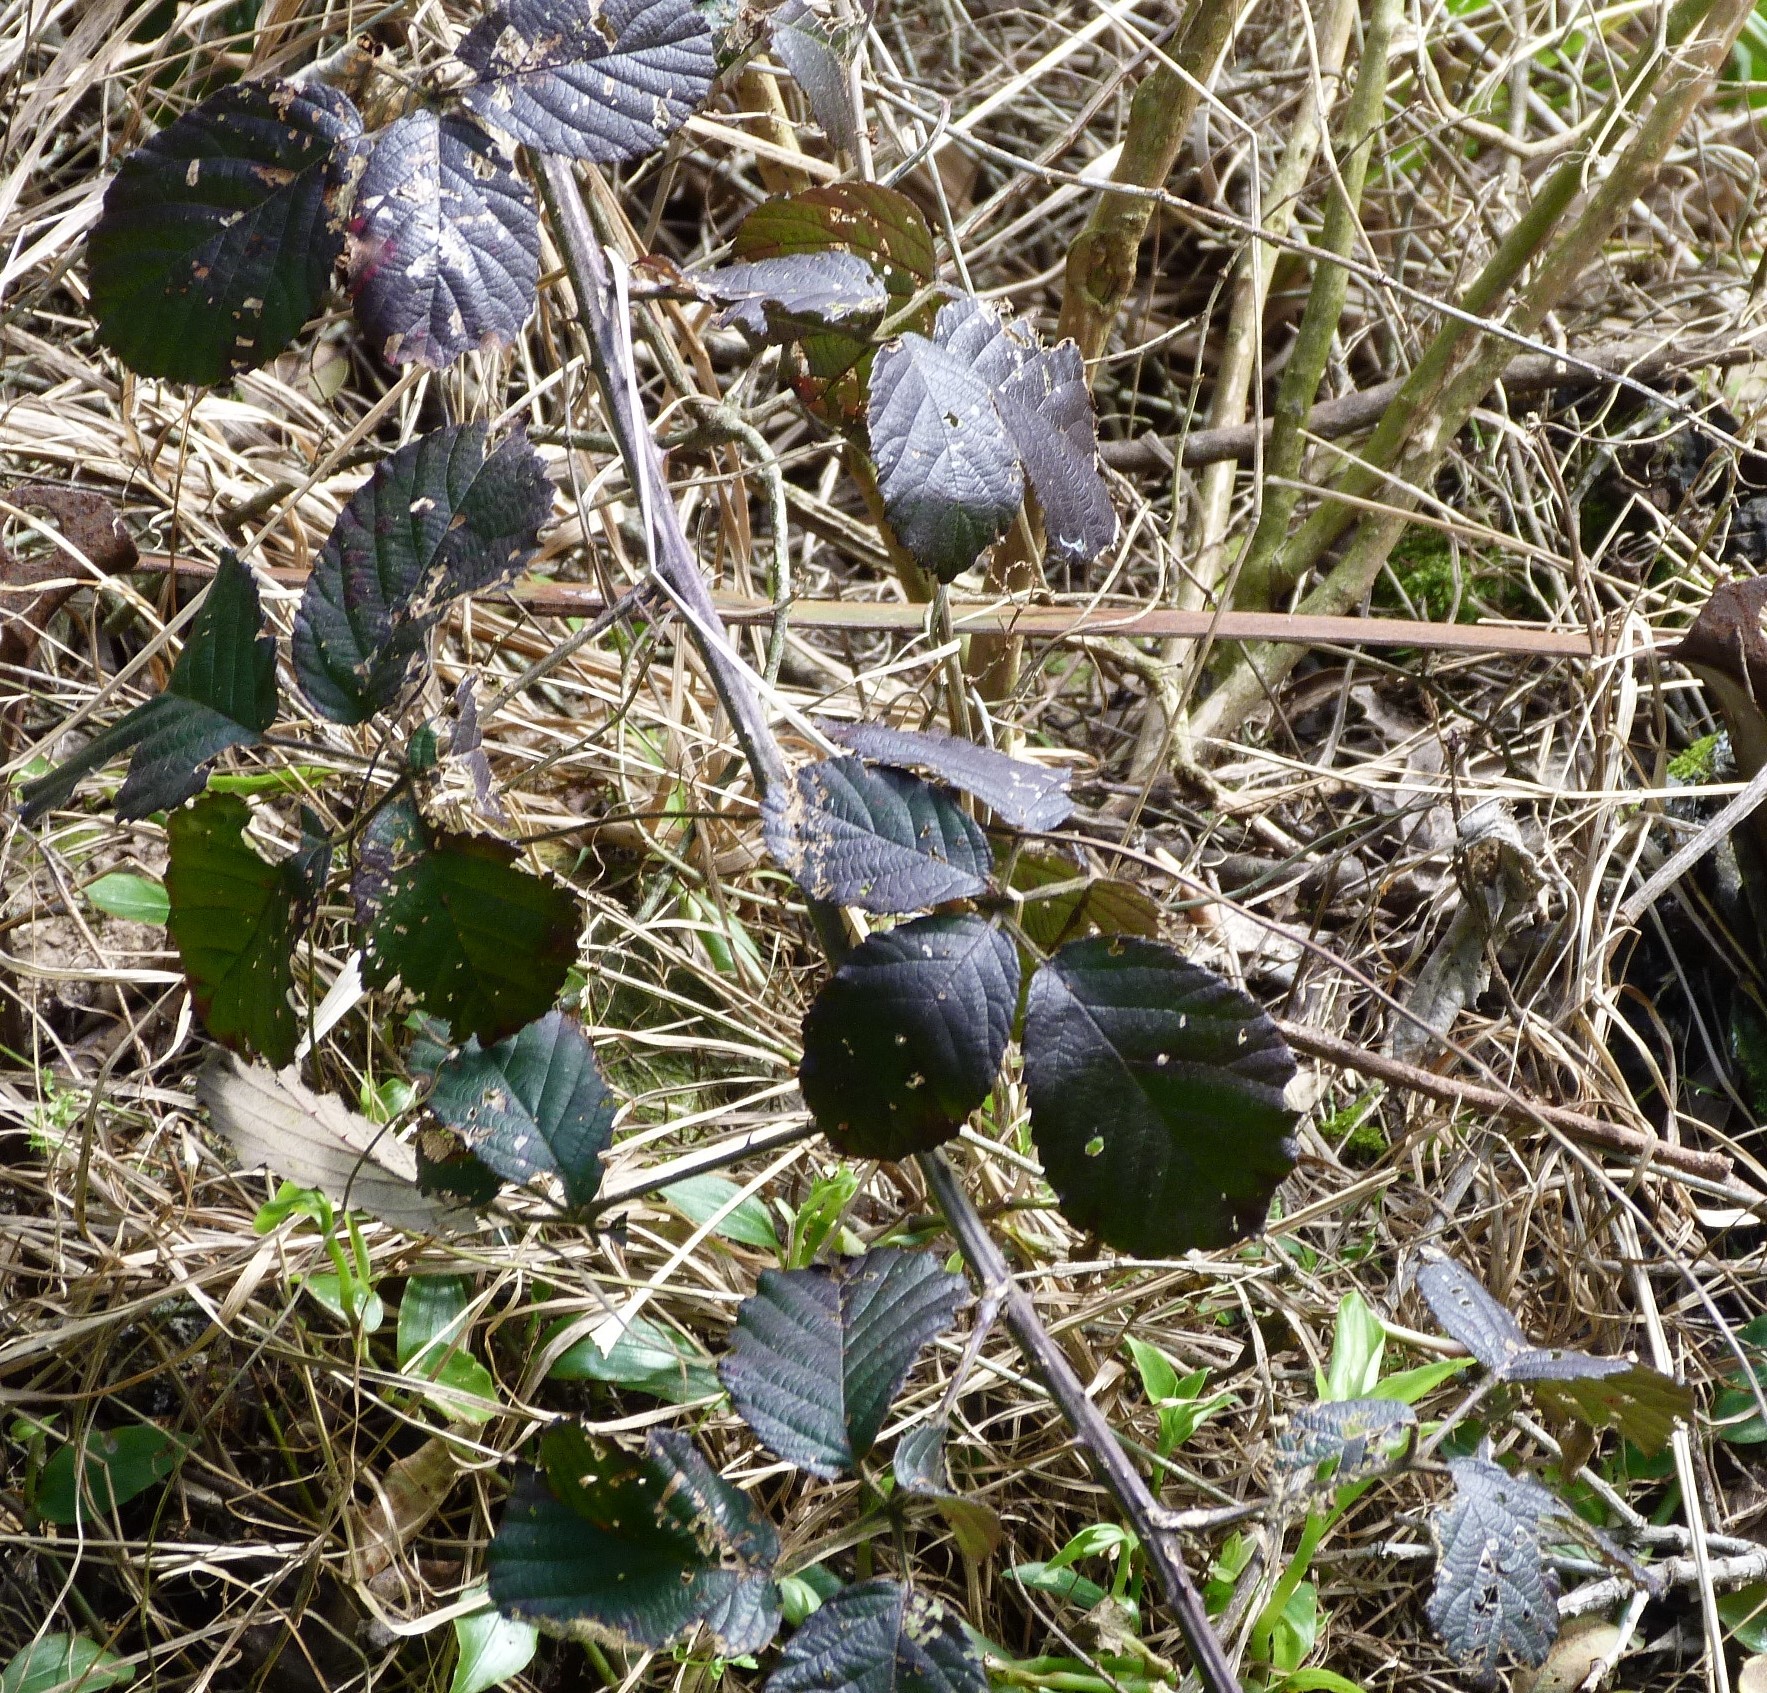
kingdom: Plantae
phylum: Tracheophyta
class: Magnoliopsida
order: Rosales
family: Rosaceae
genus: Rubus
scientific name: Rubus
